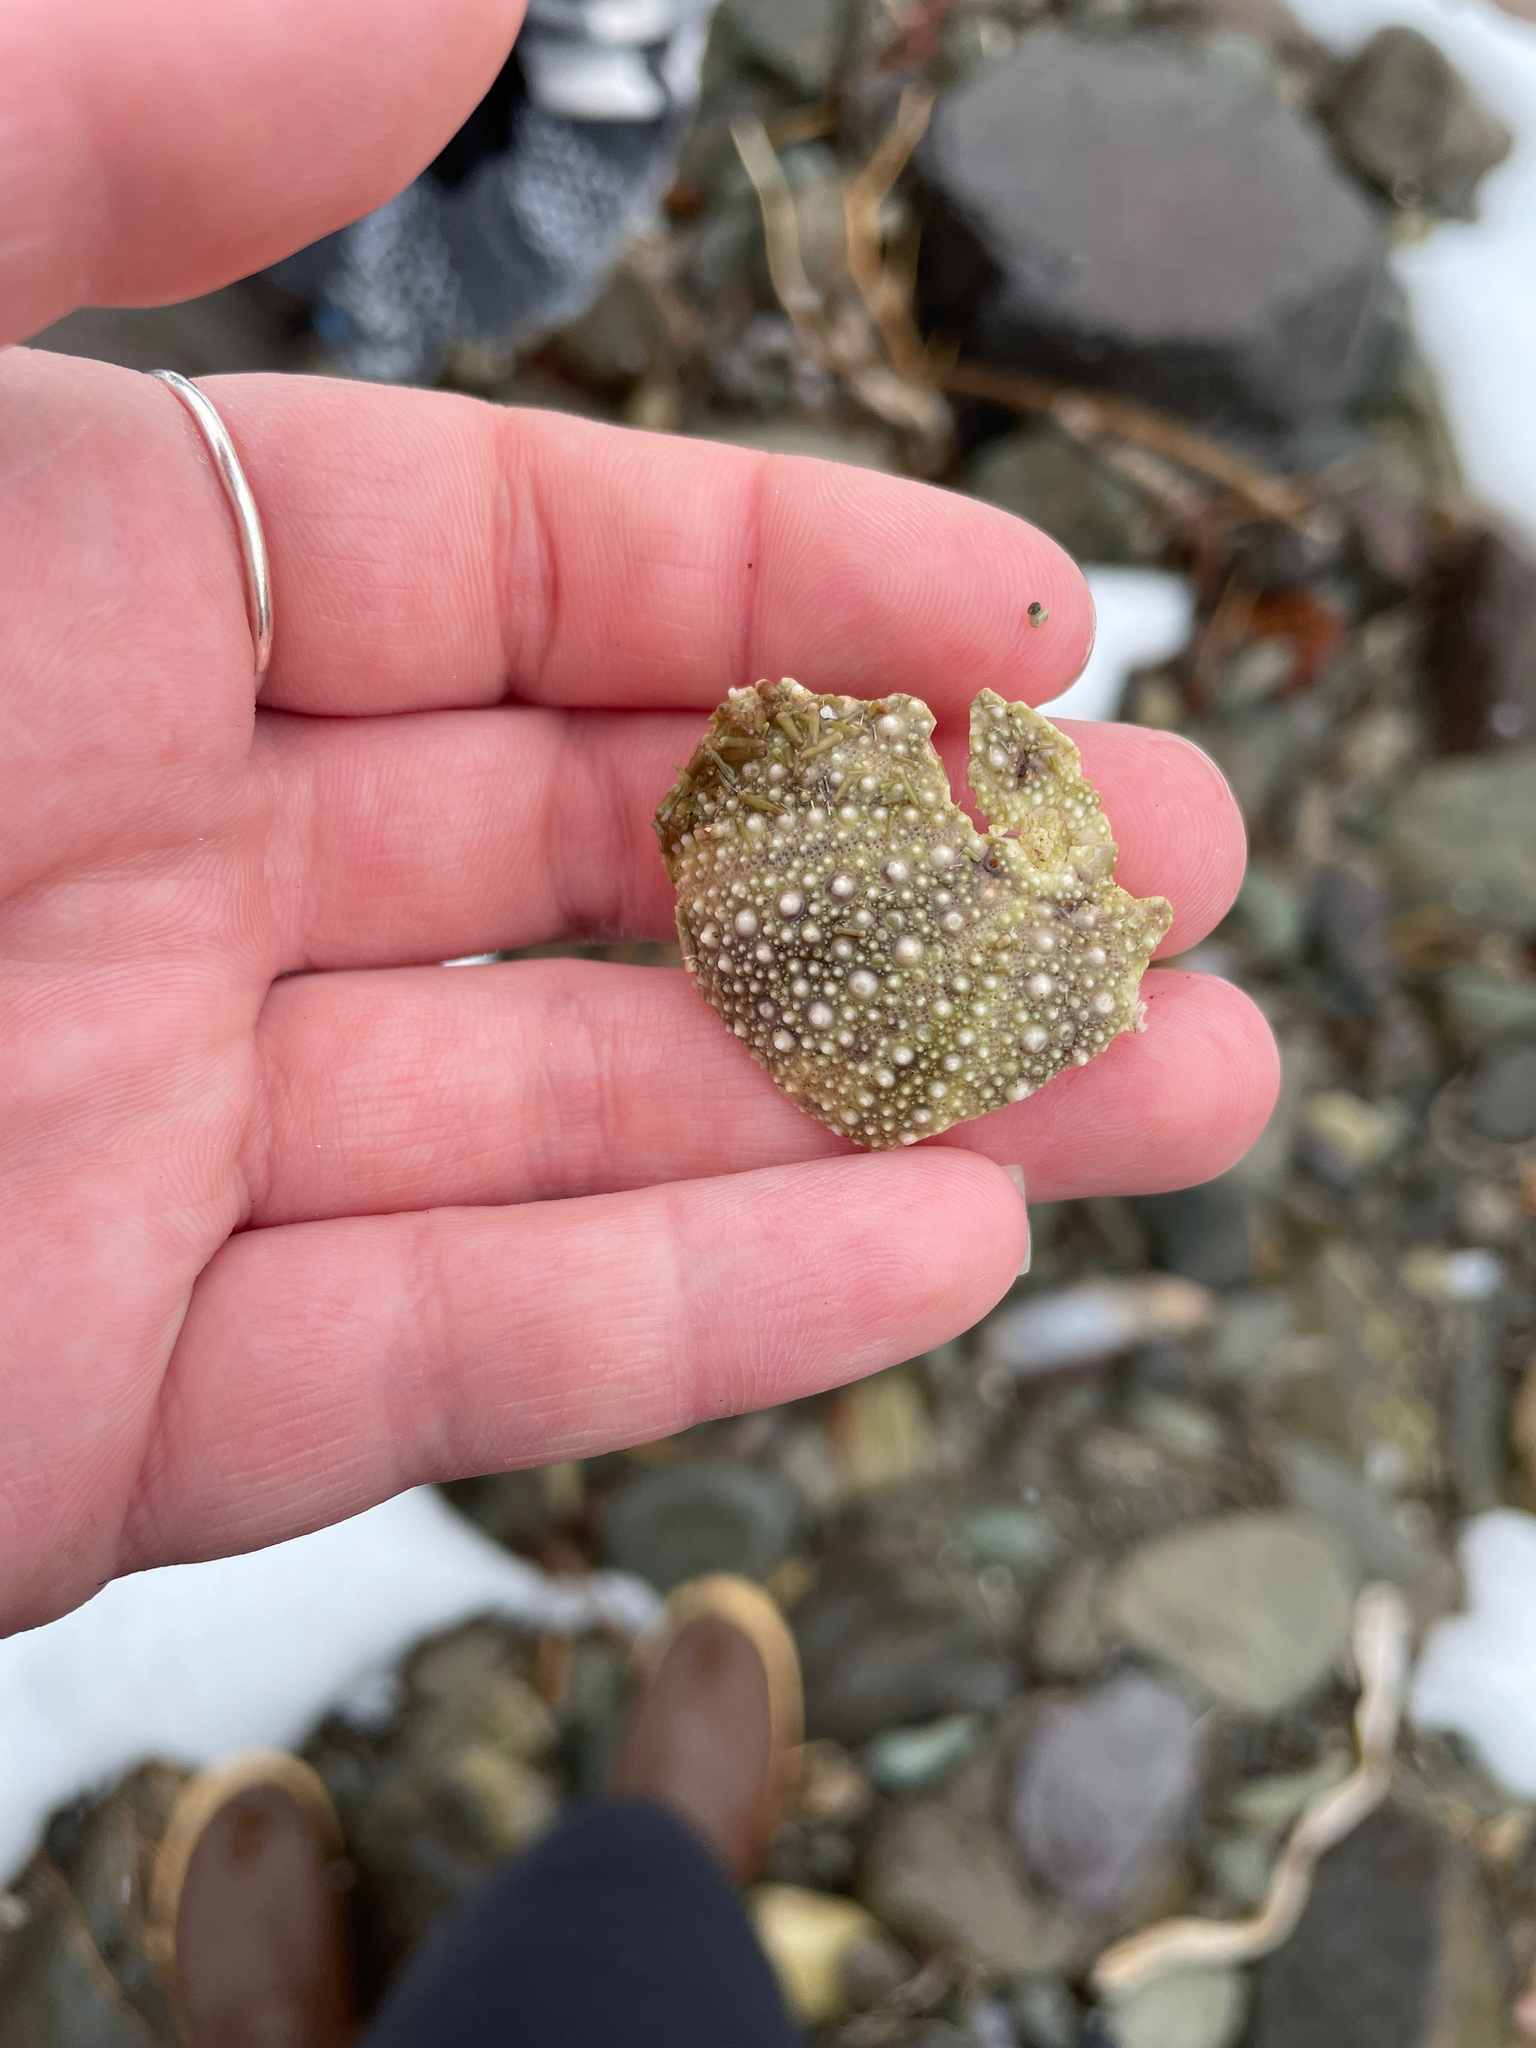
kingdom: Animalia
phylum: Echinodermata
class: Echinoidea
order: Camarodonta
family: Strongylocentrotidae
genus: Strongylocentrotus
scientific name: Strongylocentrotus droebachiensis
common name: Northern sea urchin
